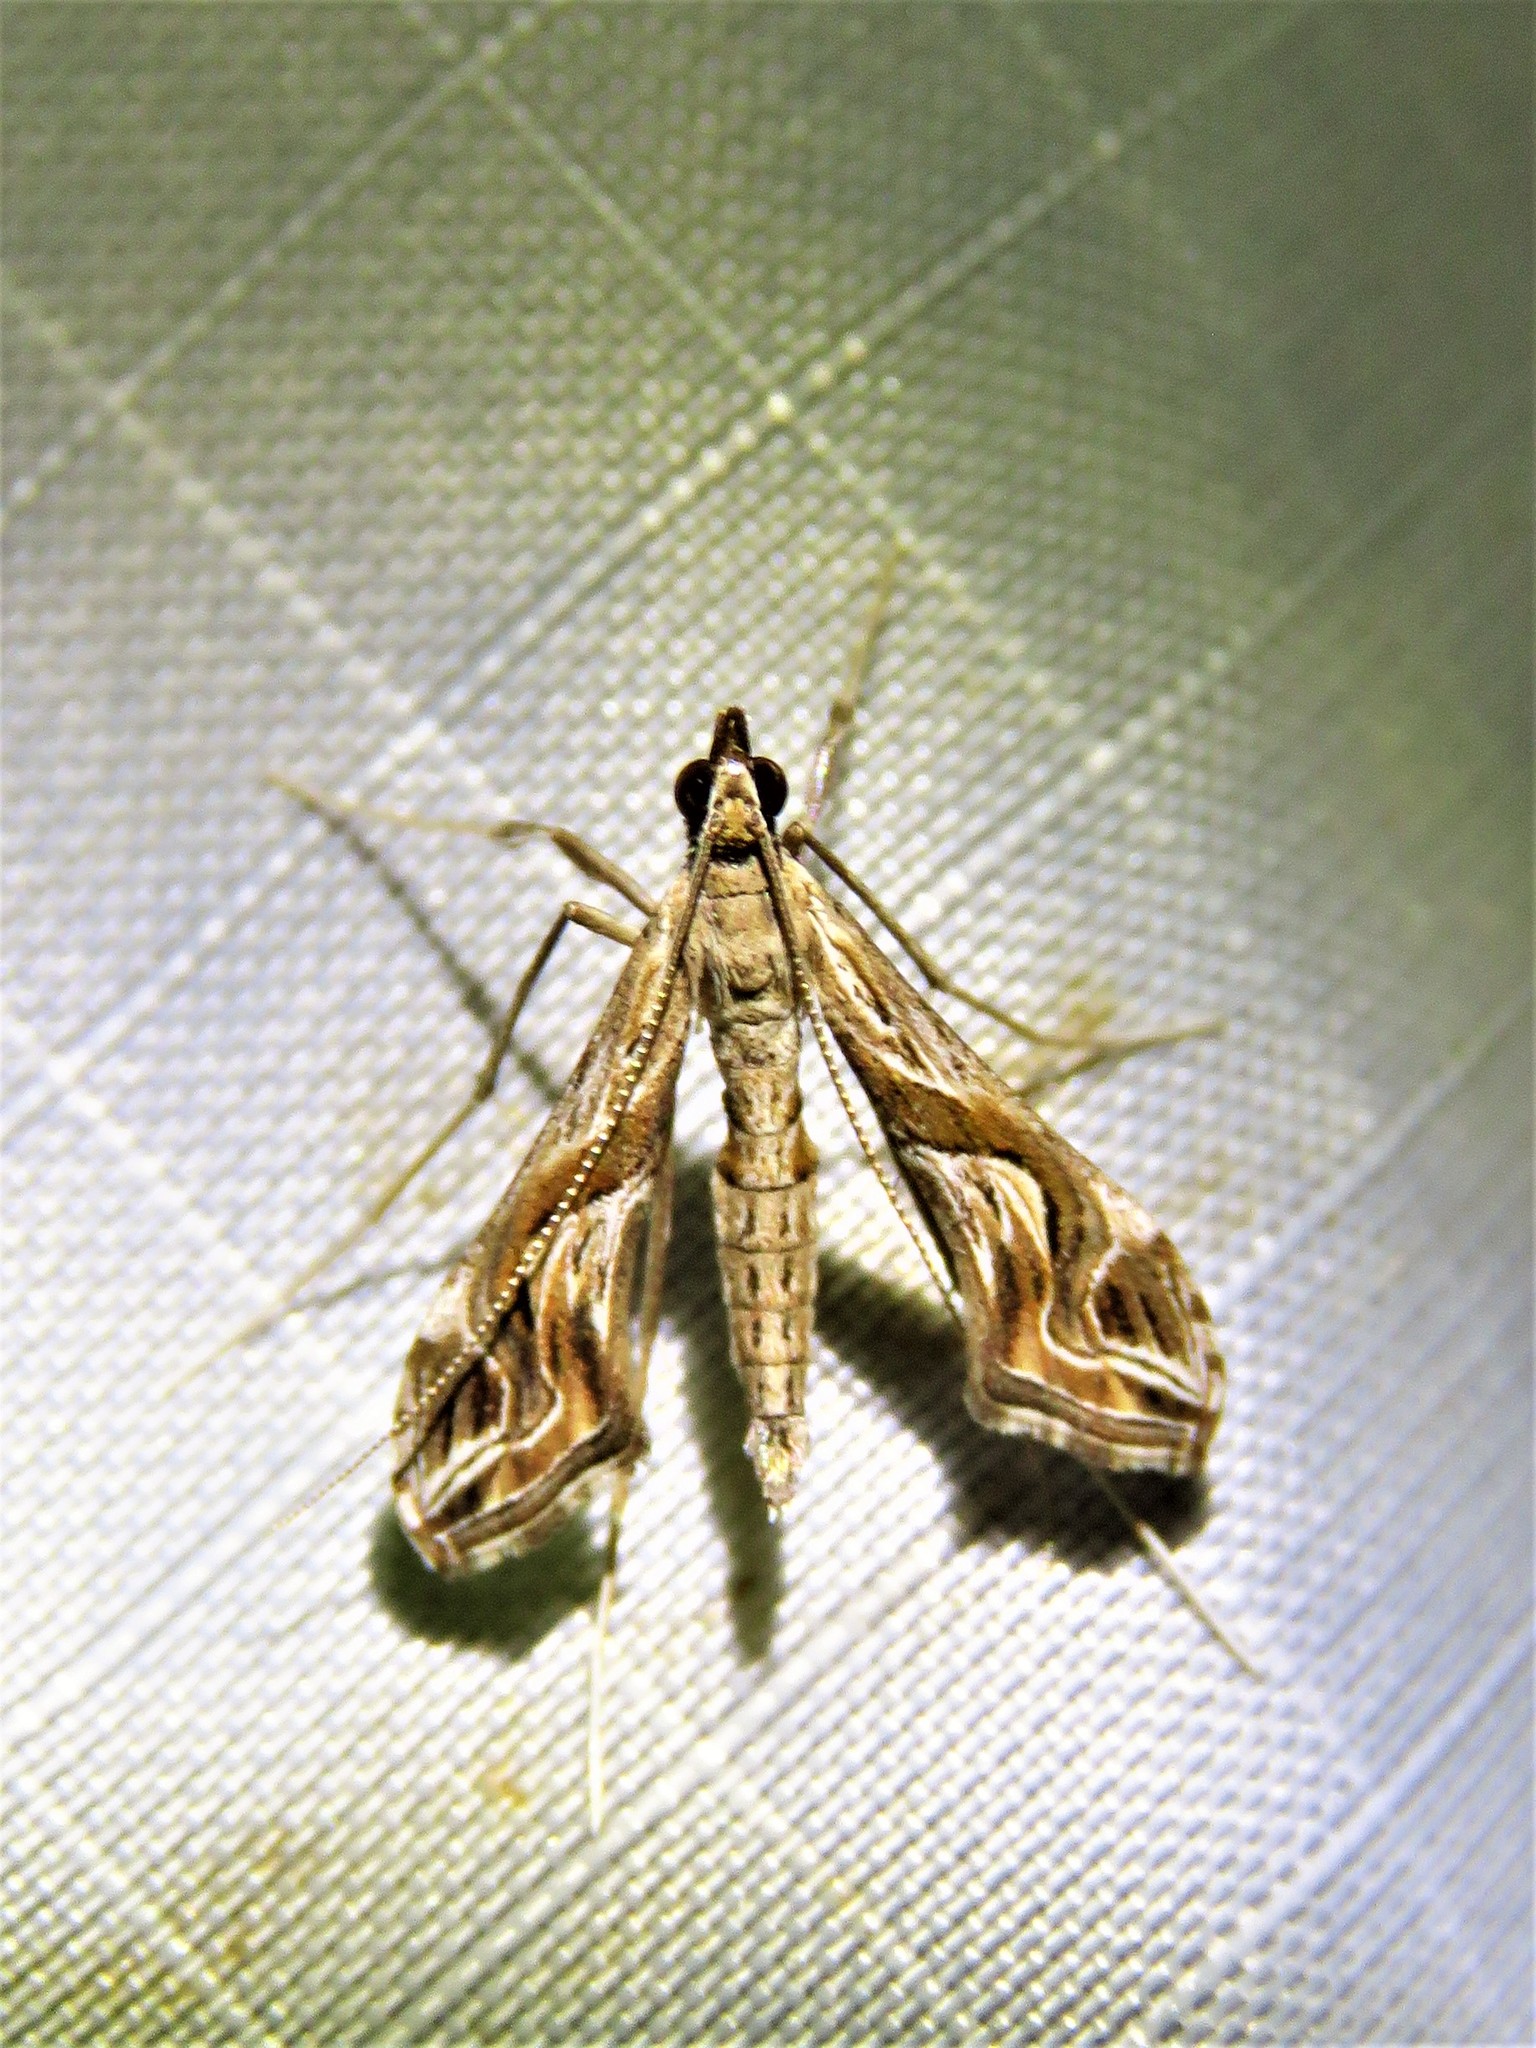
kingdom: Animalia
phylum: Arthropoda
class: Insecta
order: Lepidoptera
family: Crambidae
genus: Lineodes
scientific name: Lineodes integra
